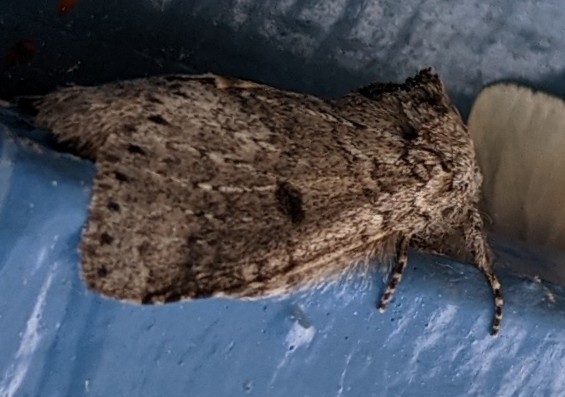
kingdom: Animalia
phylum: Arthropoda
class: Insecta
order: Lepidoptera
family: Notodontidae
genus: Lochmaeus
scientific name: Lochmaeus manteo
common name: Variable oakleaf caterpillar moth
